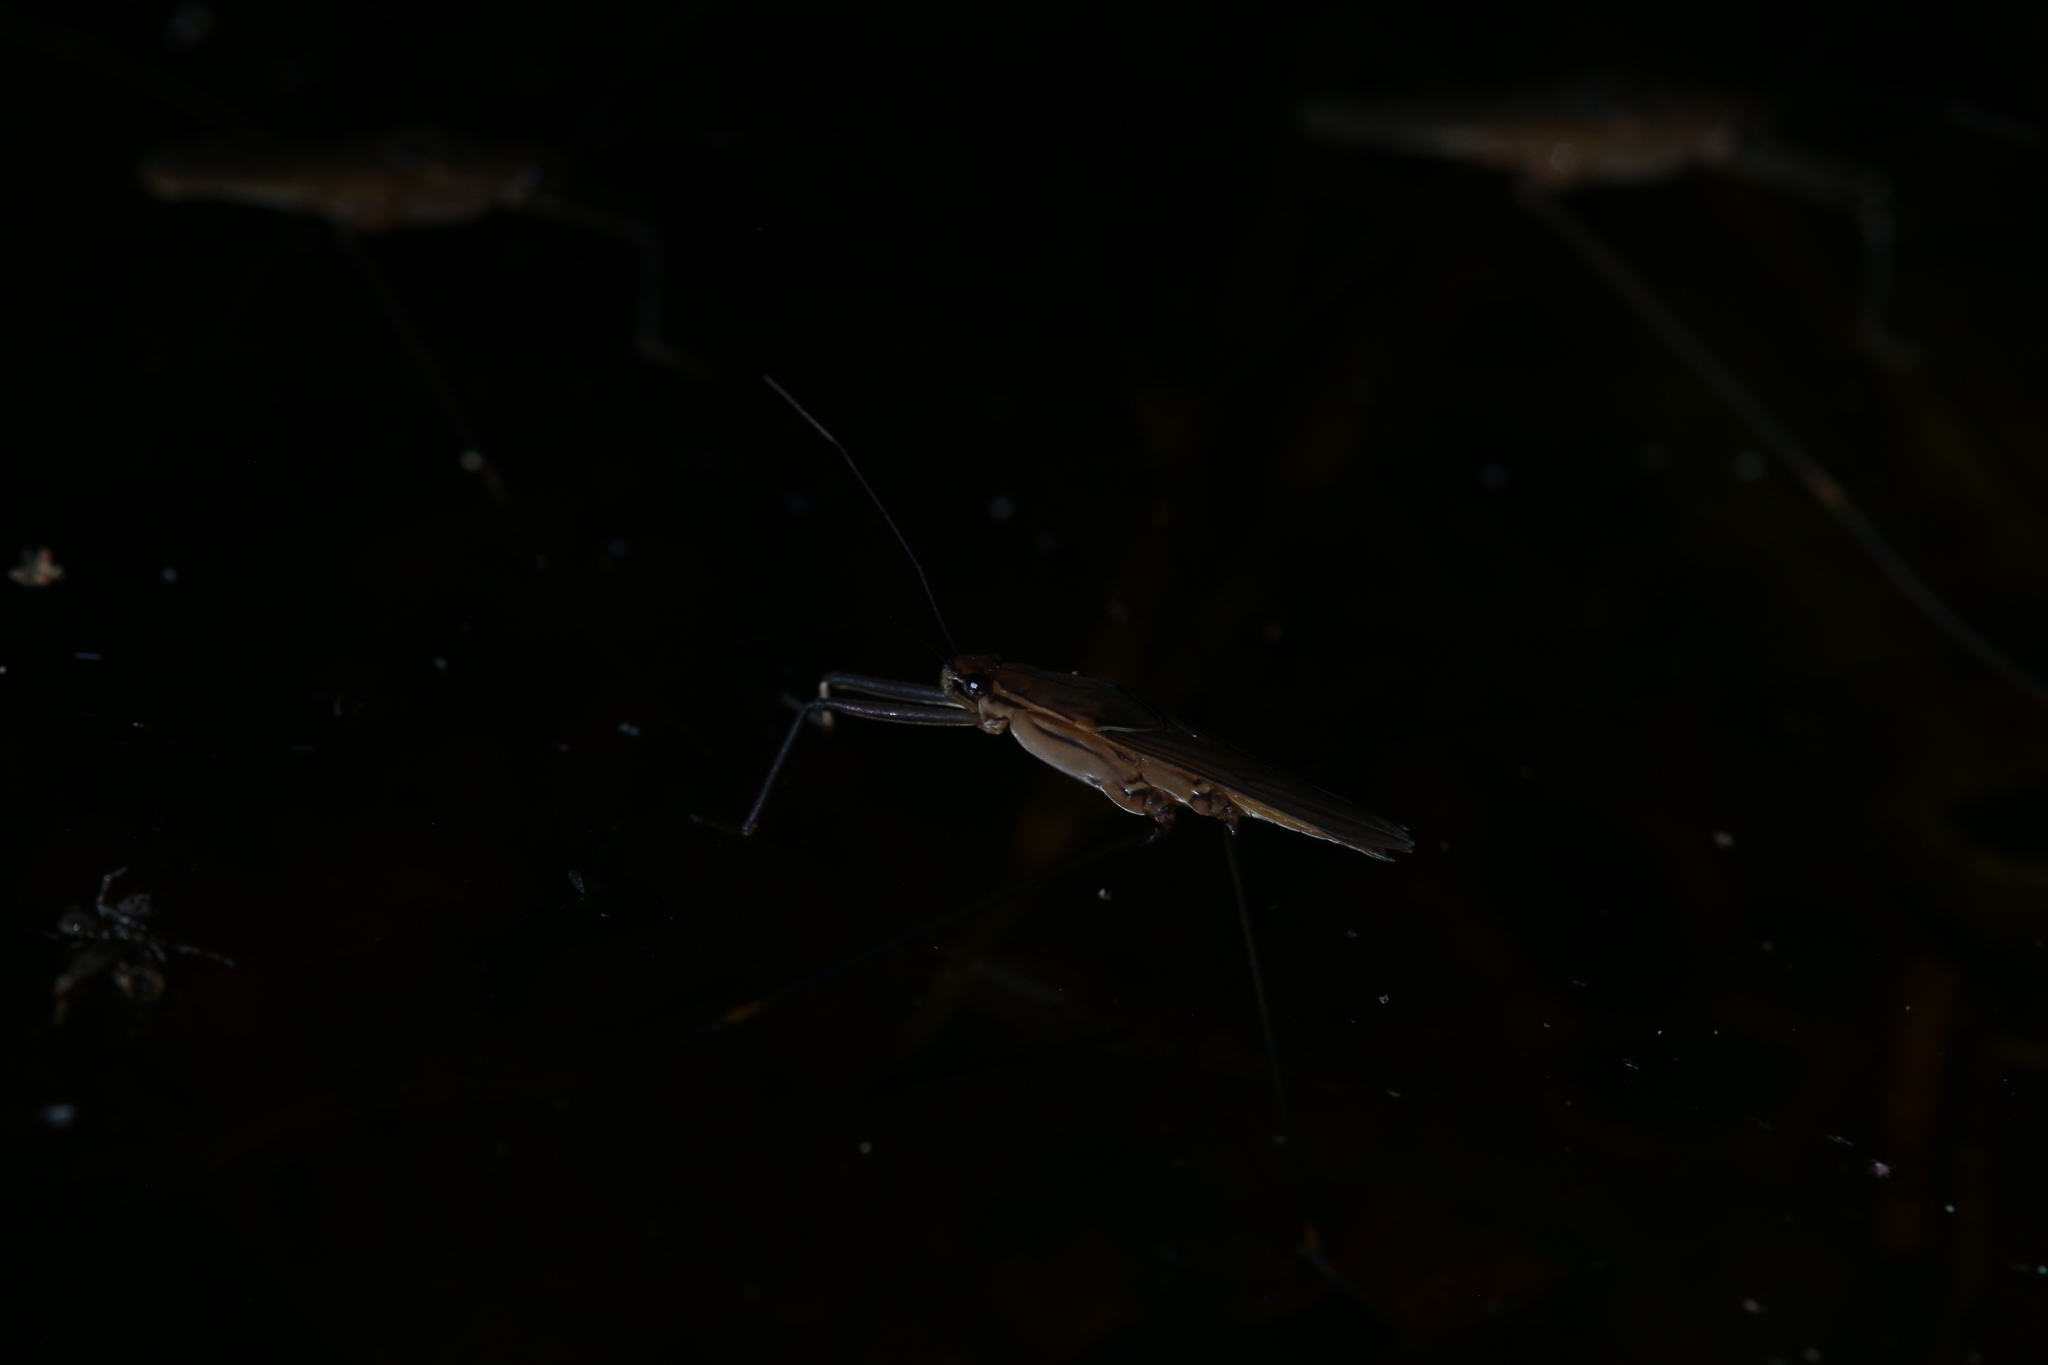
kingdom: Animalia
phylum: Arthropoda
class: Insecta
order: Hemiptera
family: Gerridae
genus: Limnometra
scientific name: Limnometra cursitans
